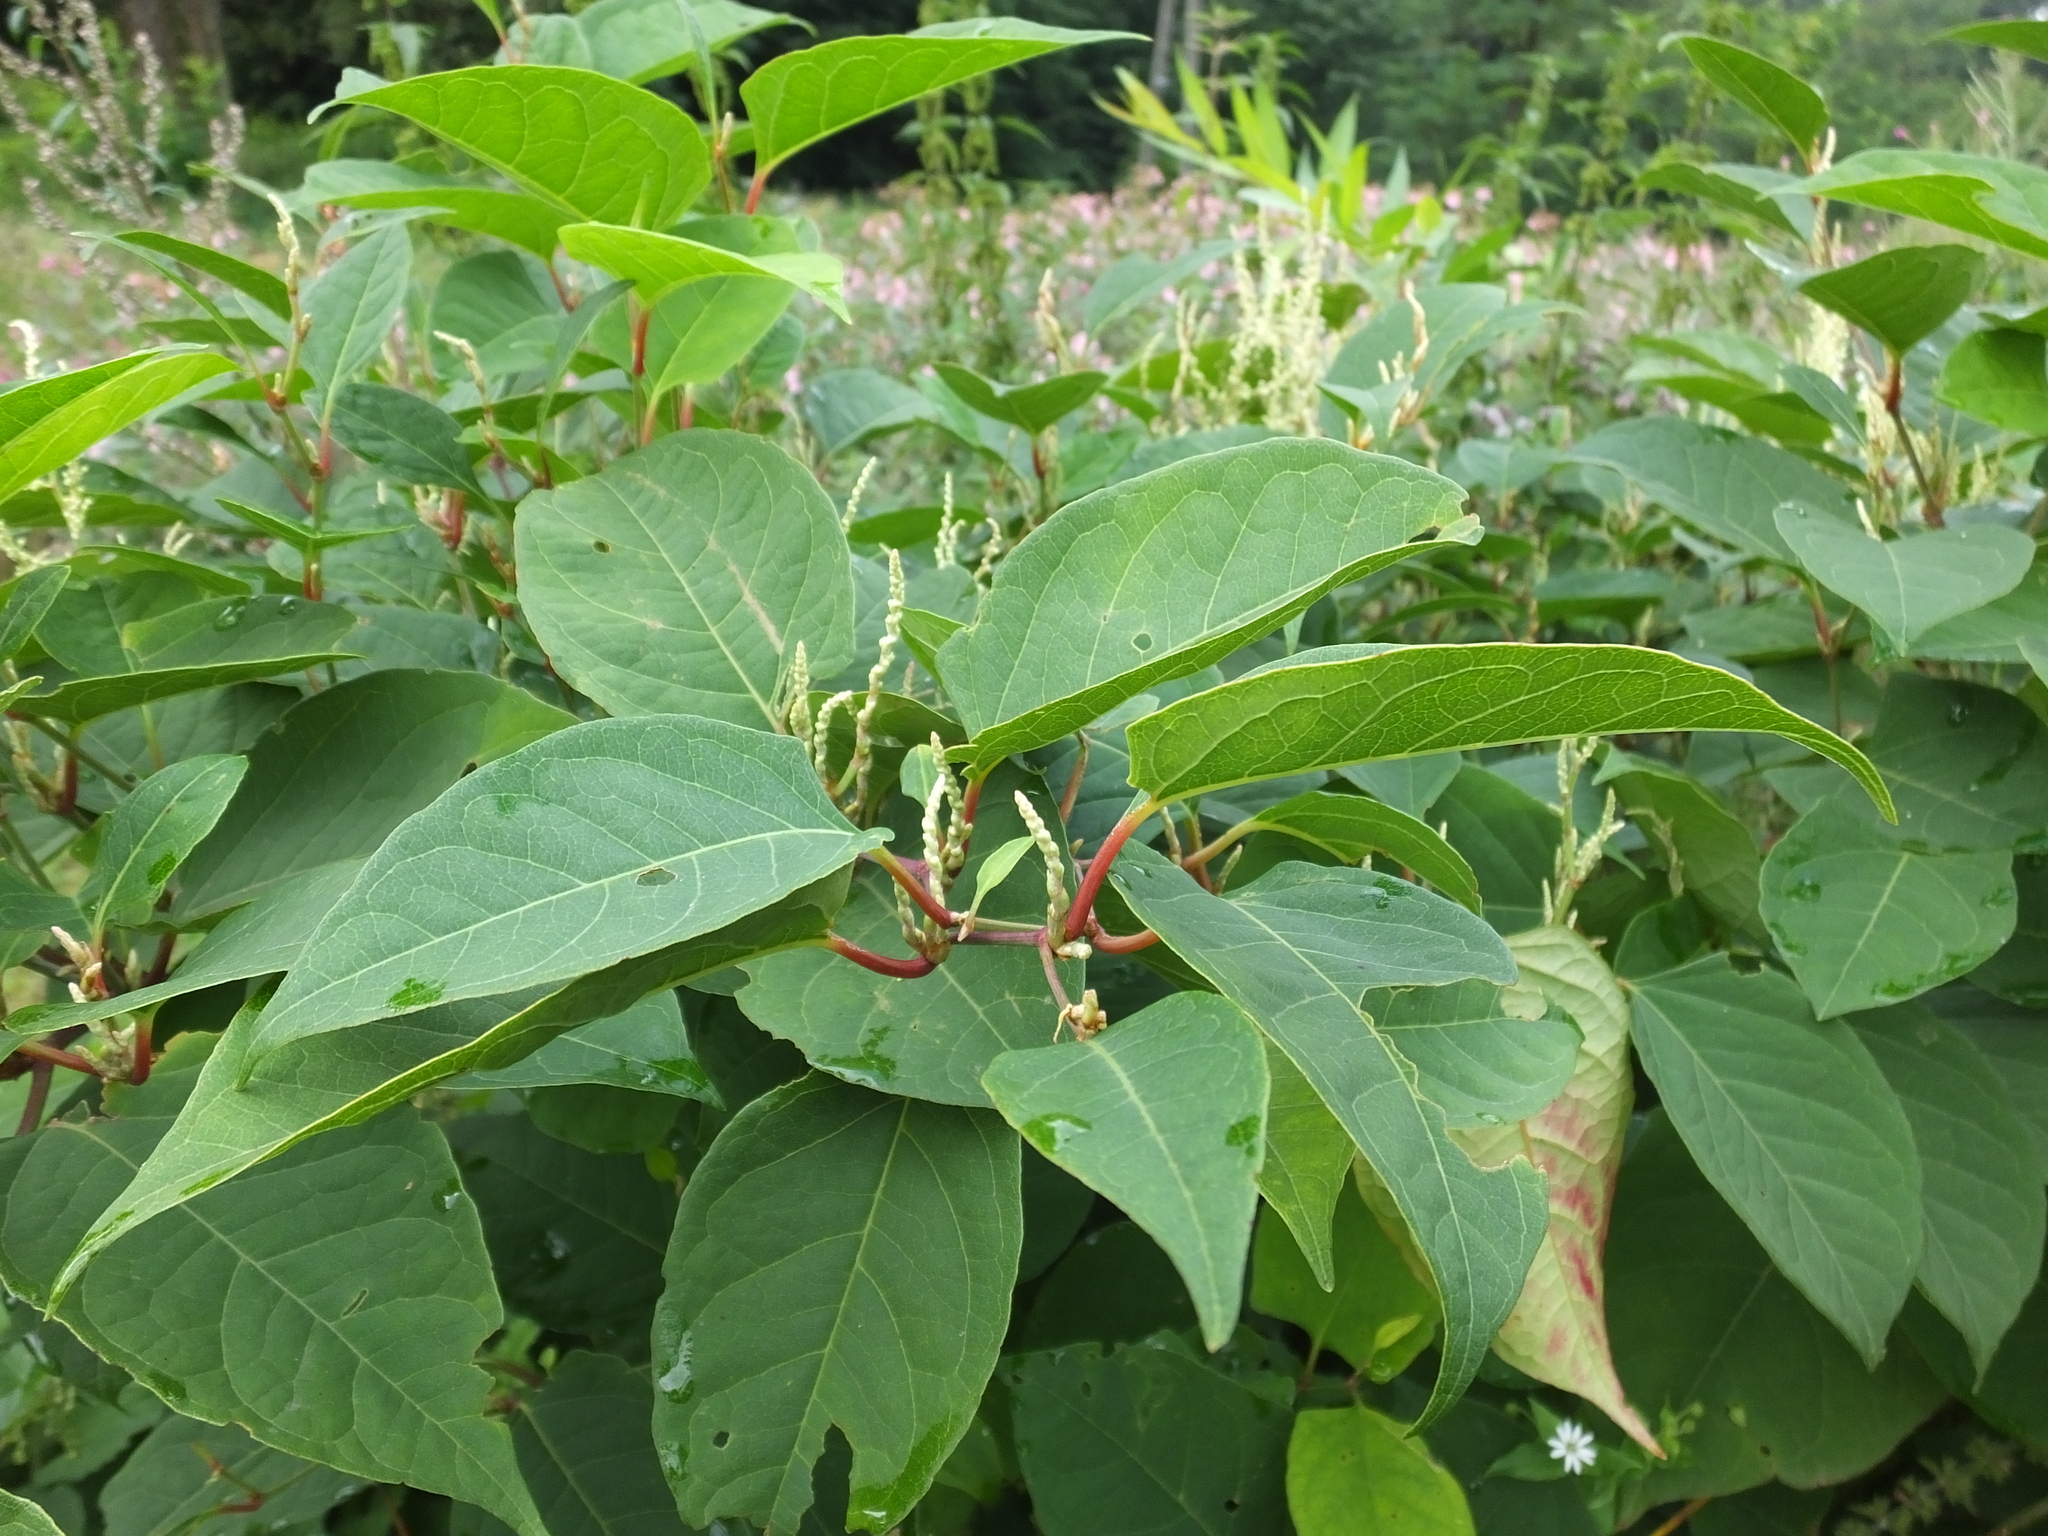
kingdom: Plantae
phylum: Tracheophyta
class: Magnoliopsida
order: Caryophyllales
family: Polygonaceae
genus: Reynoutria
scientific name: Reynoutria japonica
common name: Japanese knotweed
